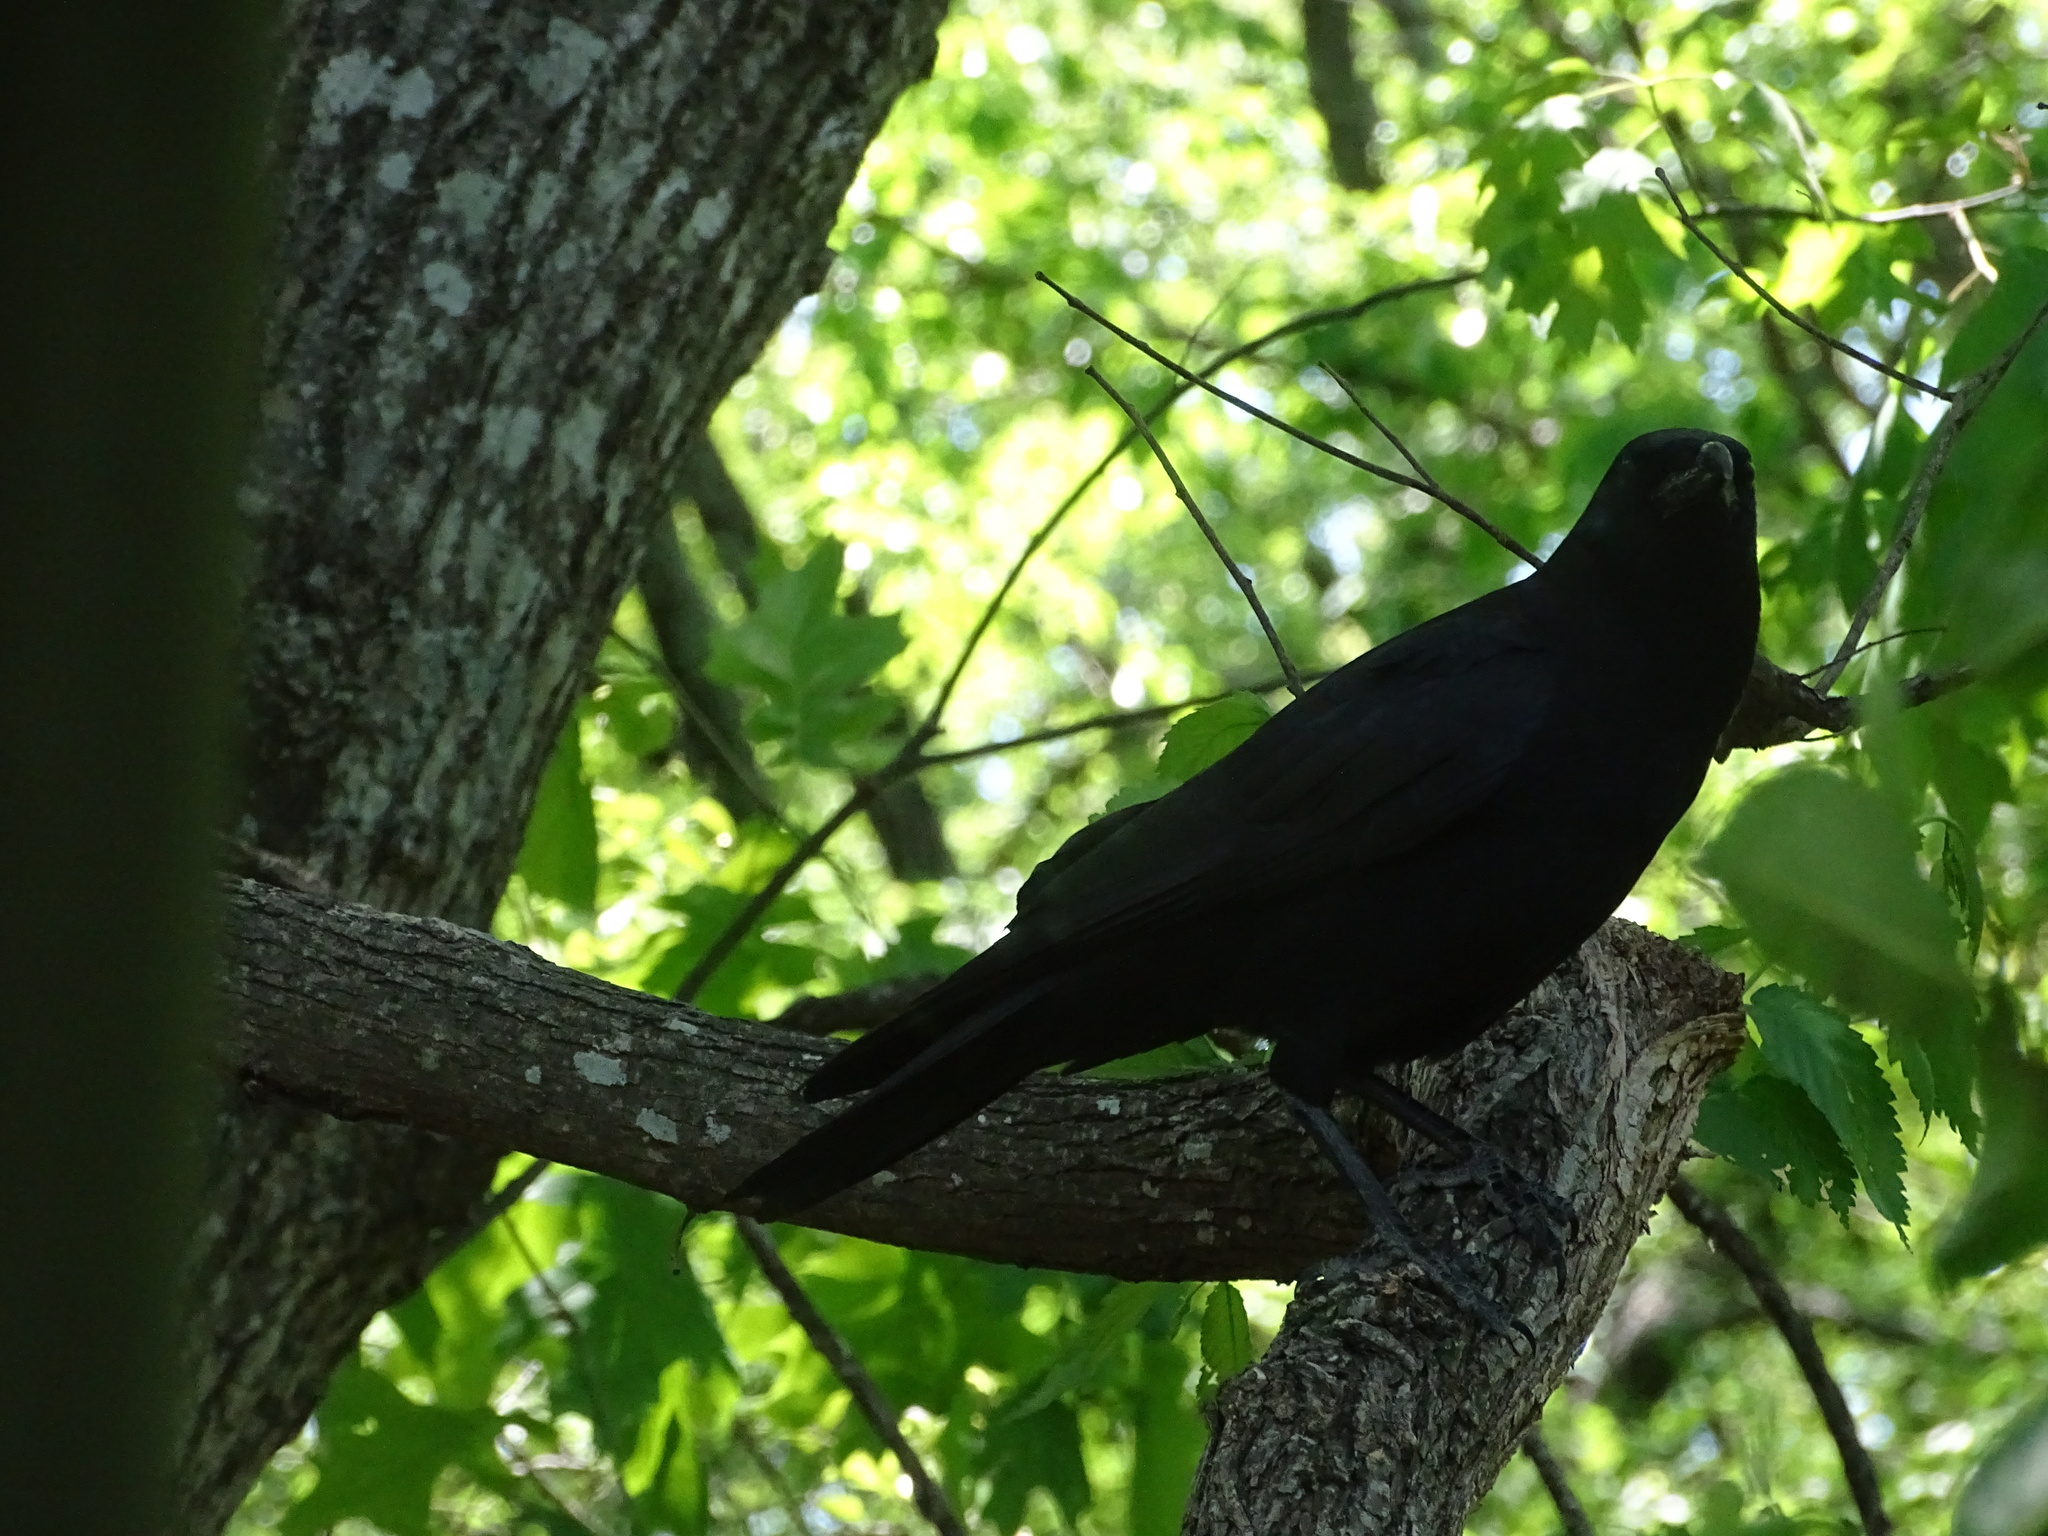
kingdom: Animalia
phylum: Chordata
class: Aves
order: Passeriformes
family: Corvidae
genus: Corvus
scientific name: Corvus brachyrhynchos
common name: American crow
